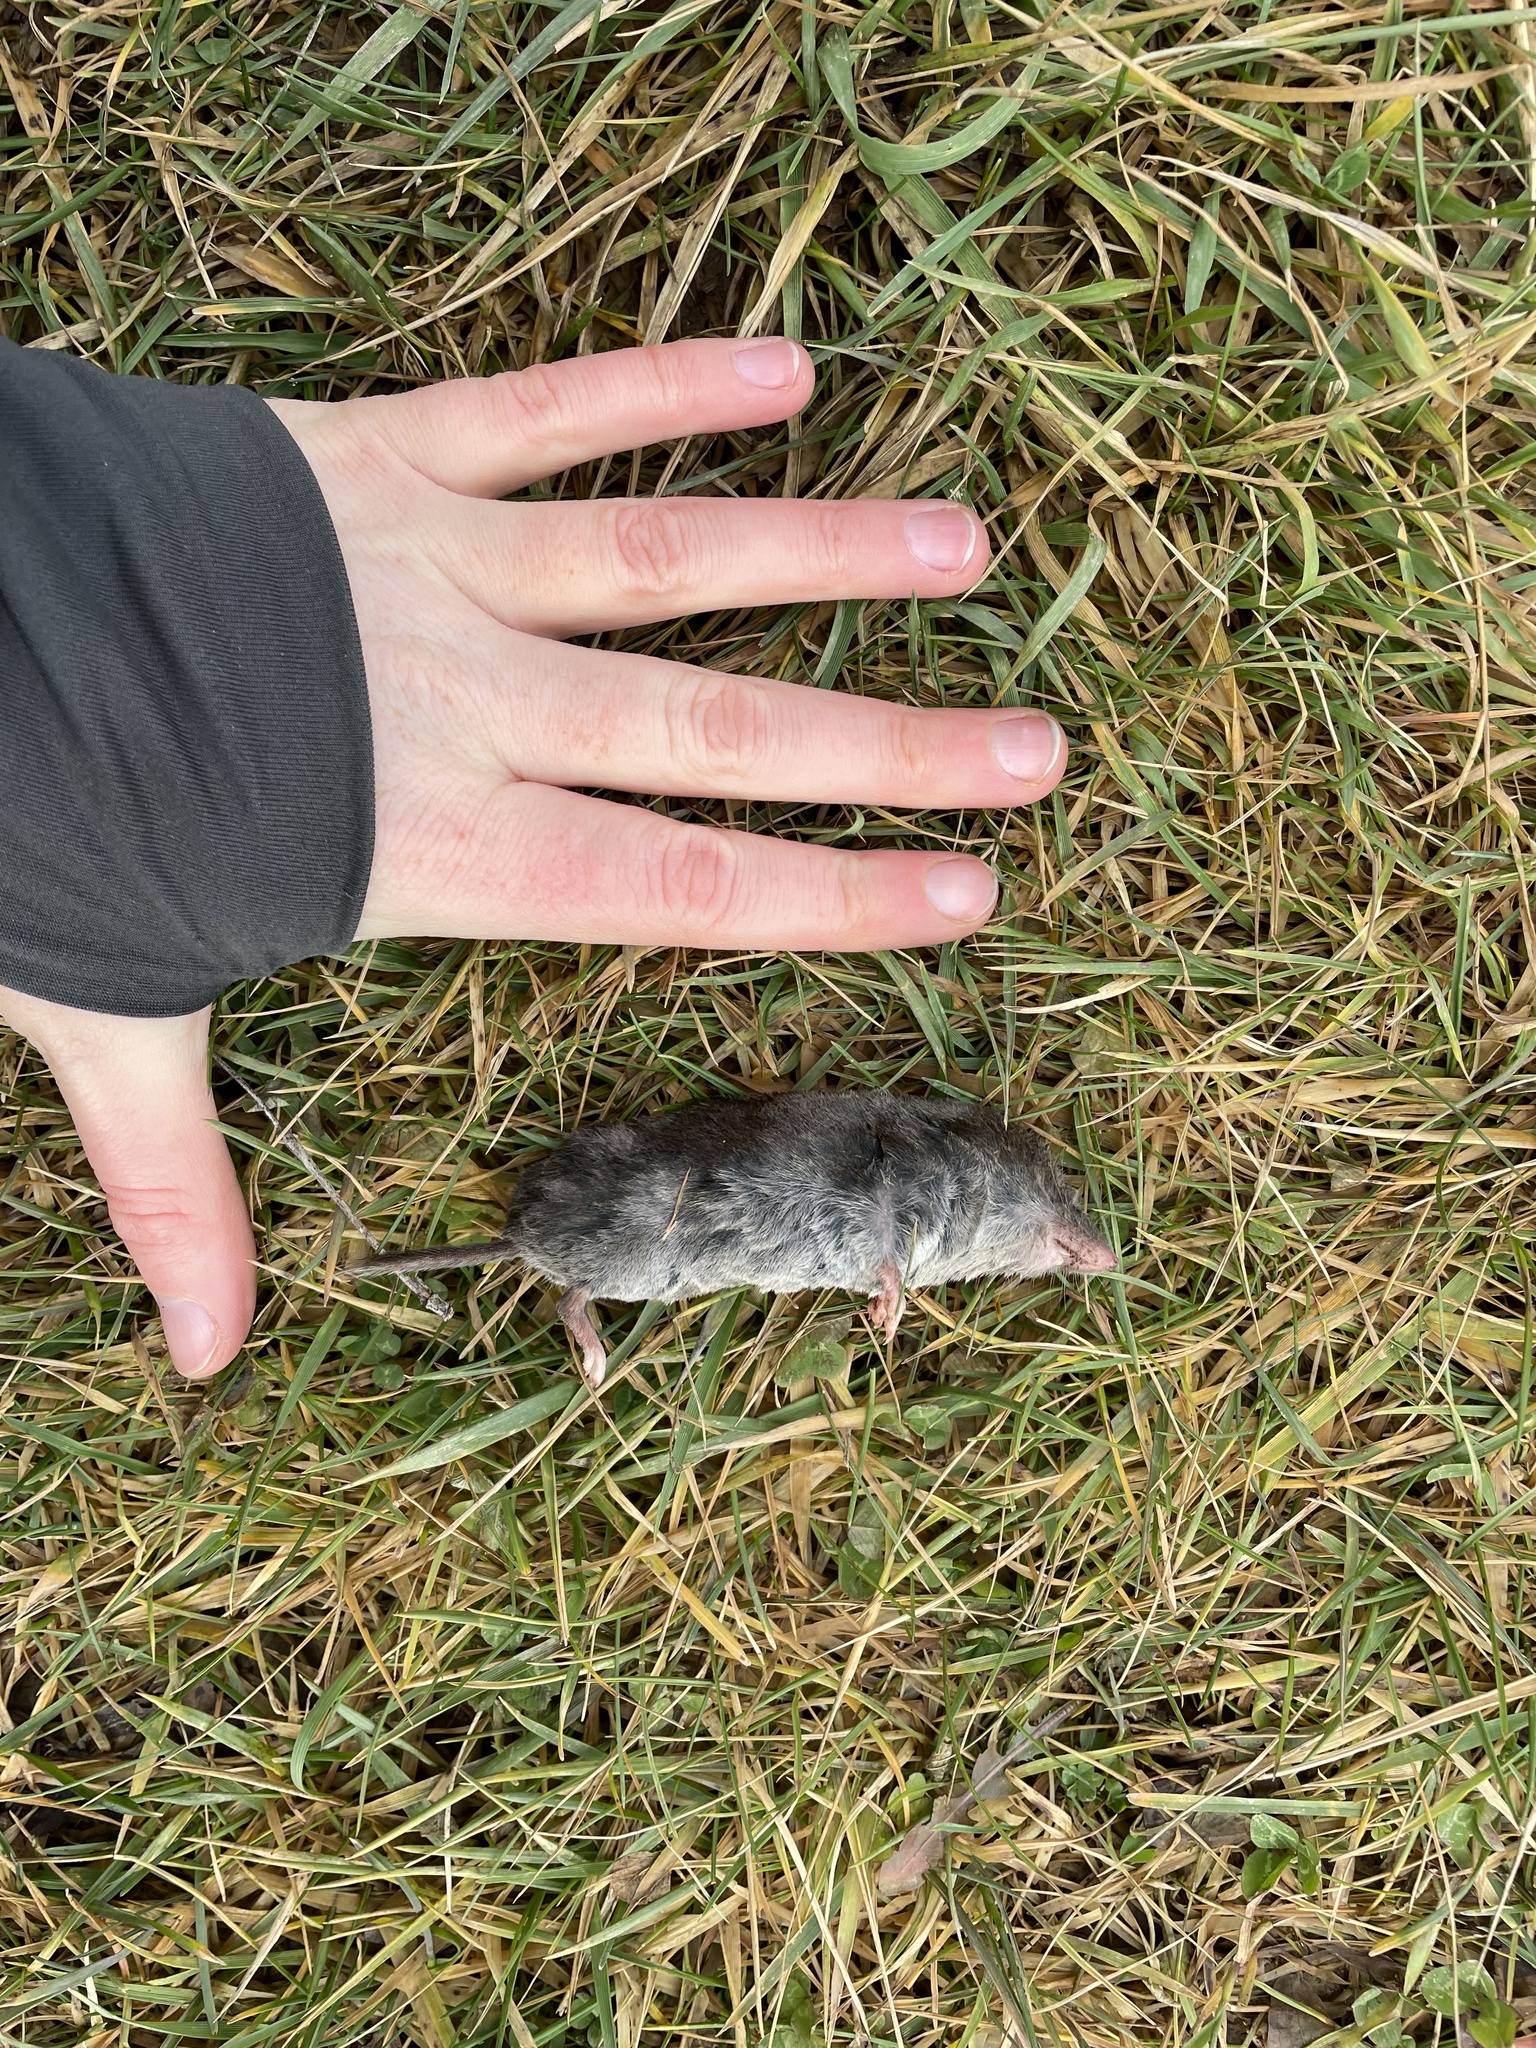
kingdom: Animalia
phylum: Chordata
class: Mammalia
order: Soricomorpha
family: Soricidae
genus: Blarina
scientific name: Blarina brevicauda
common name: Northern short-tailed shrew
